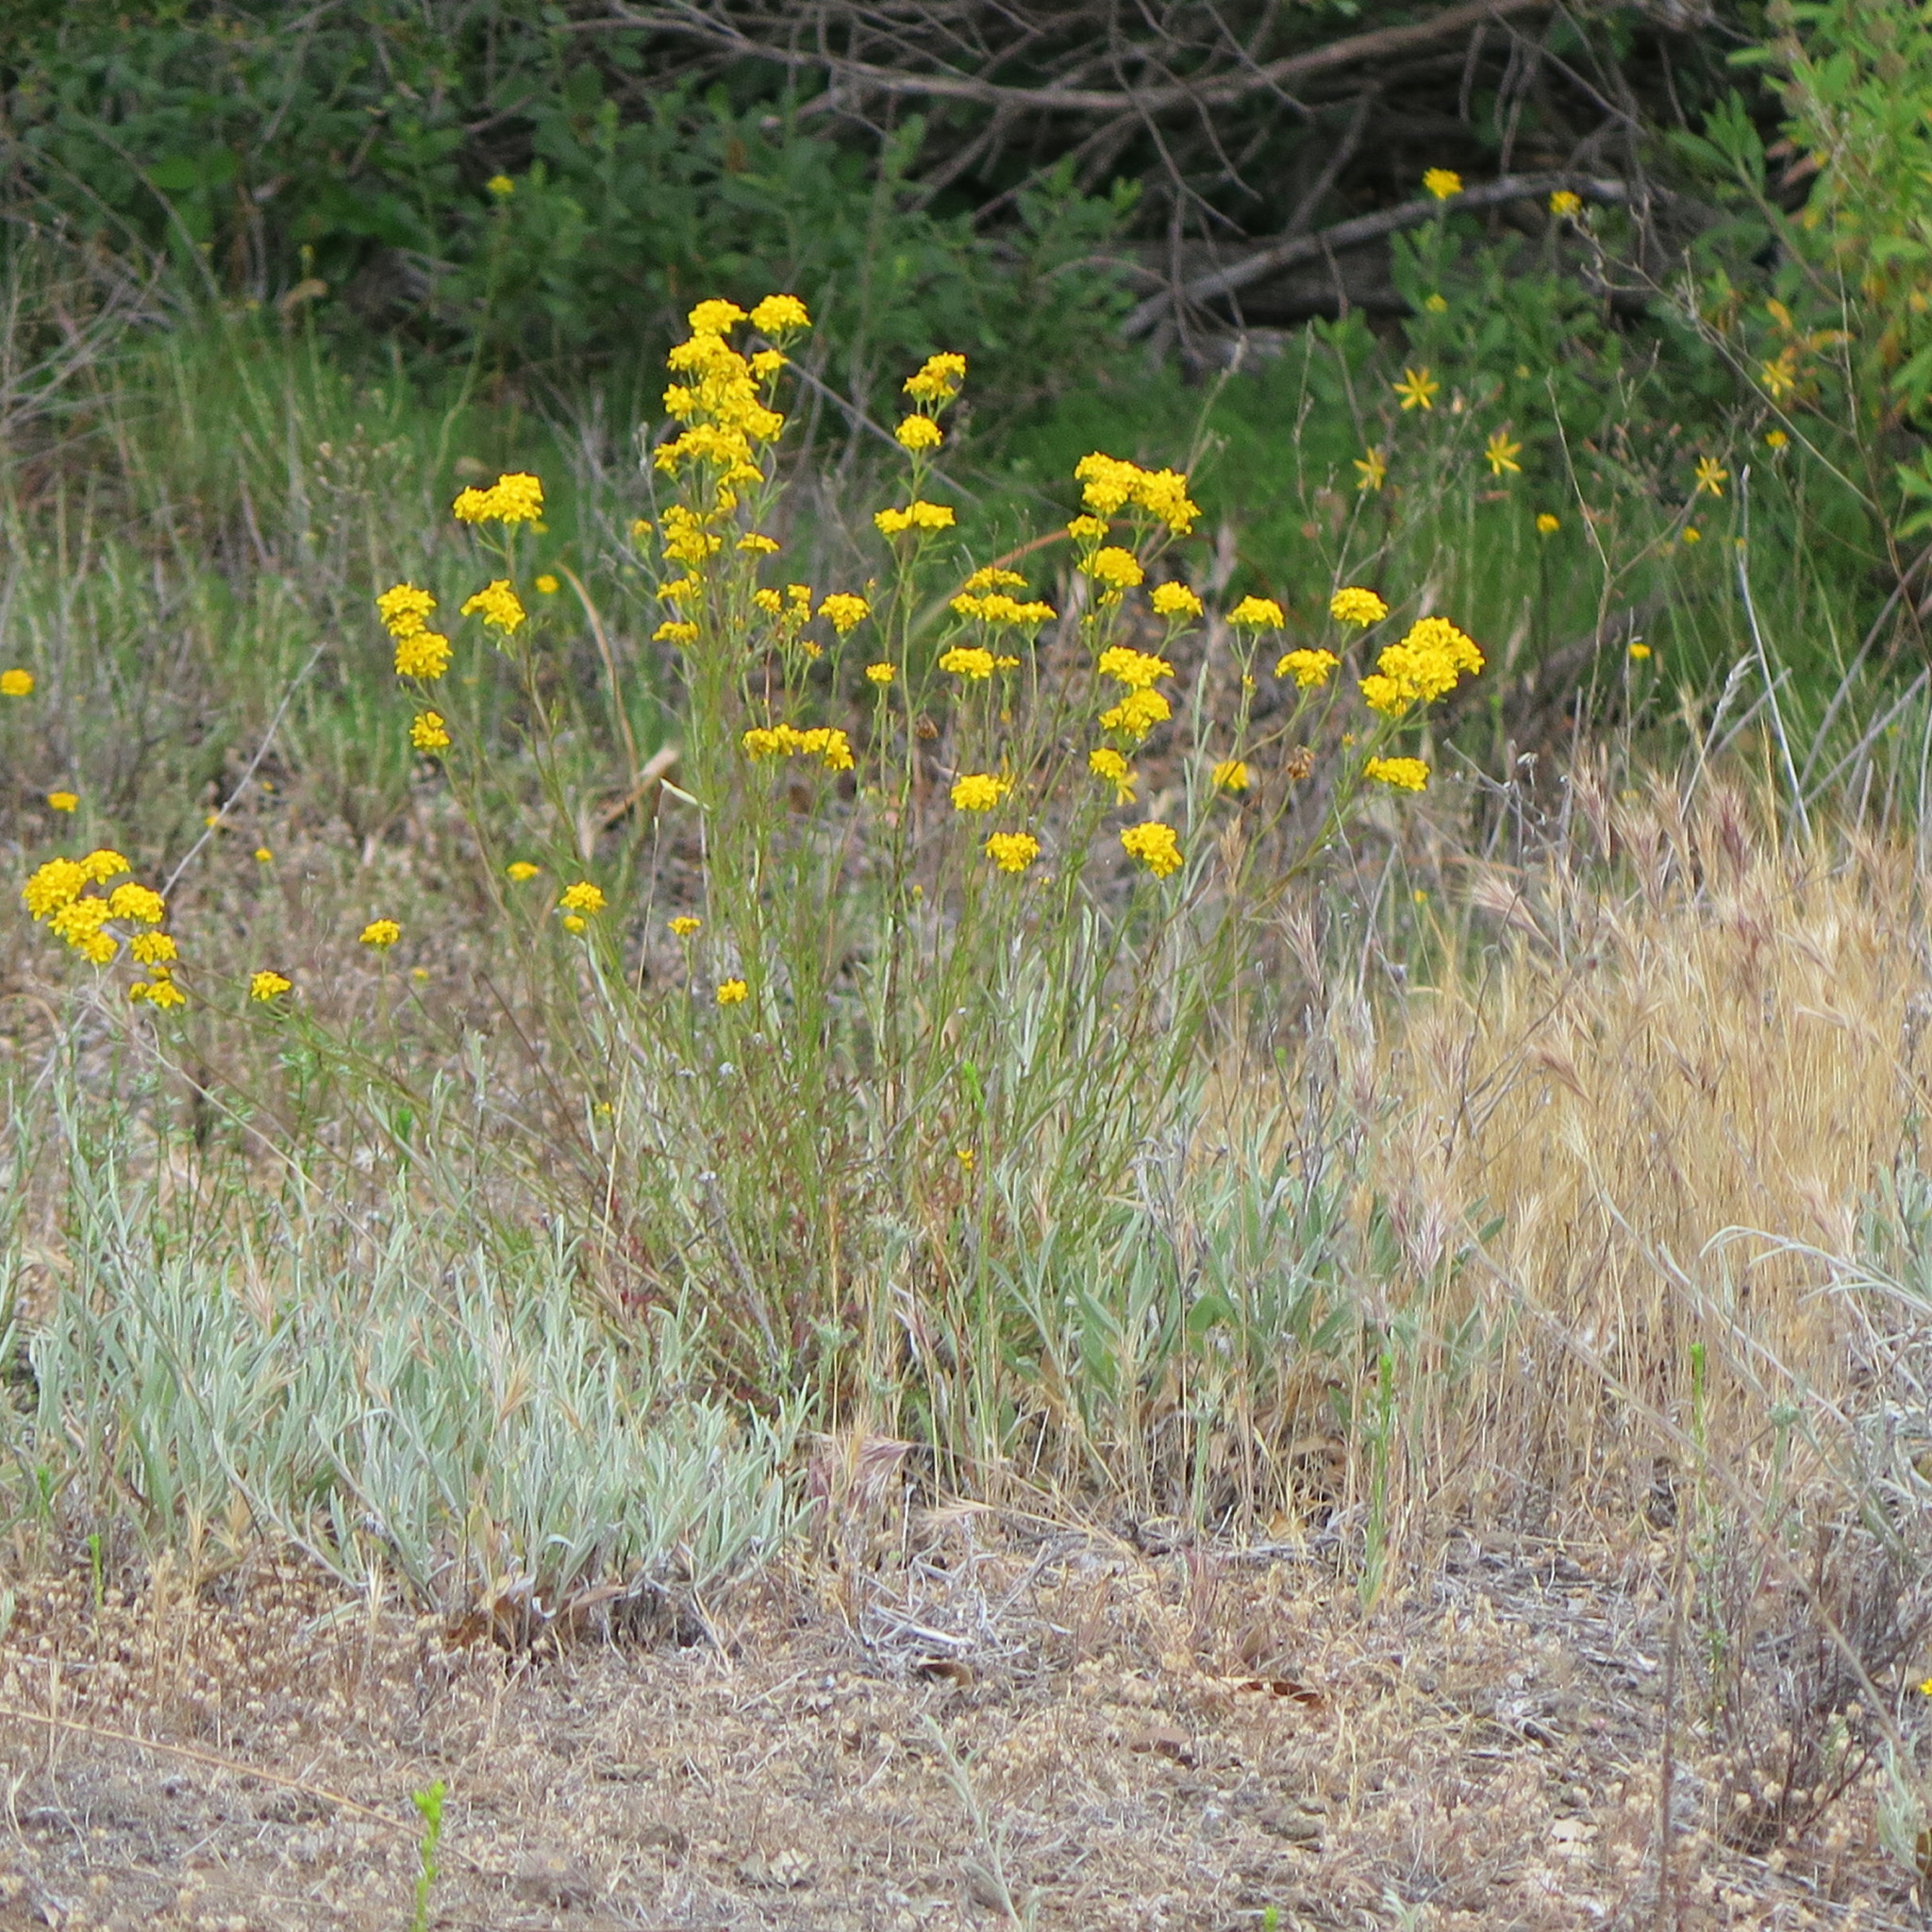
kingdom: Plantae
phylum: Tracheophyta
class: Magnoliopsida
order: Asterales
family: Asteraceae
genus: Eriophyllum
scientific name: Eriophyllum confertiflorum
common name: Golden-yarrow
